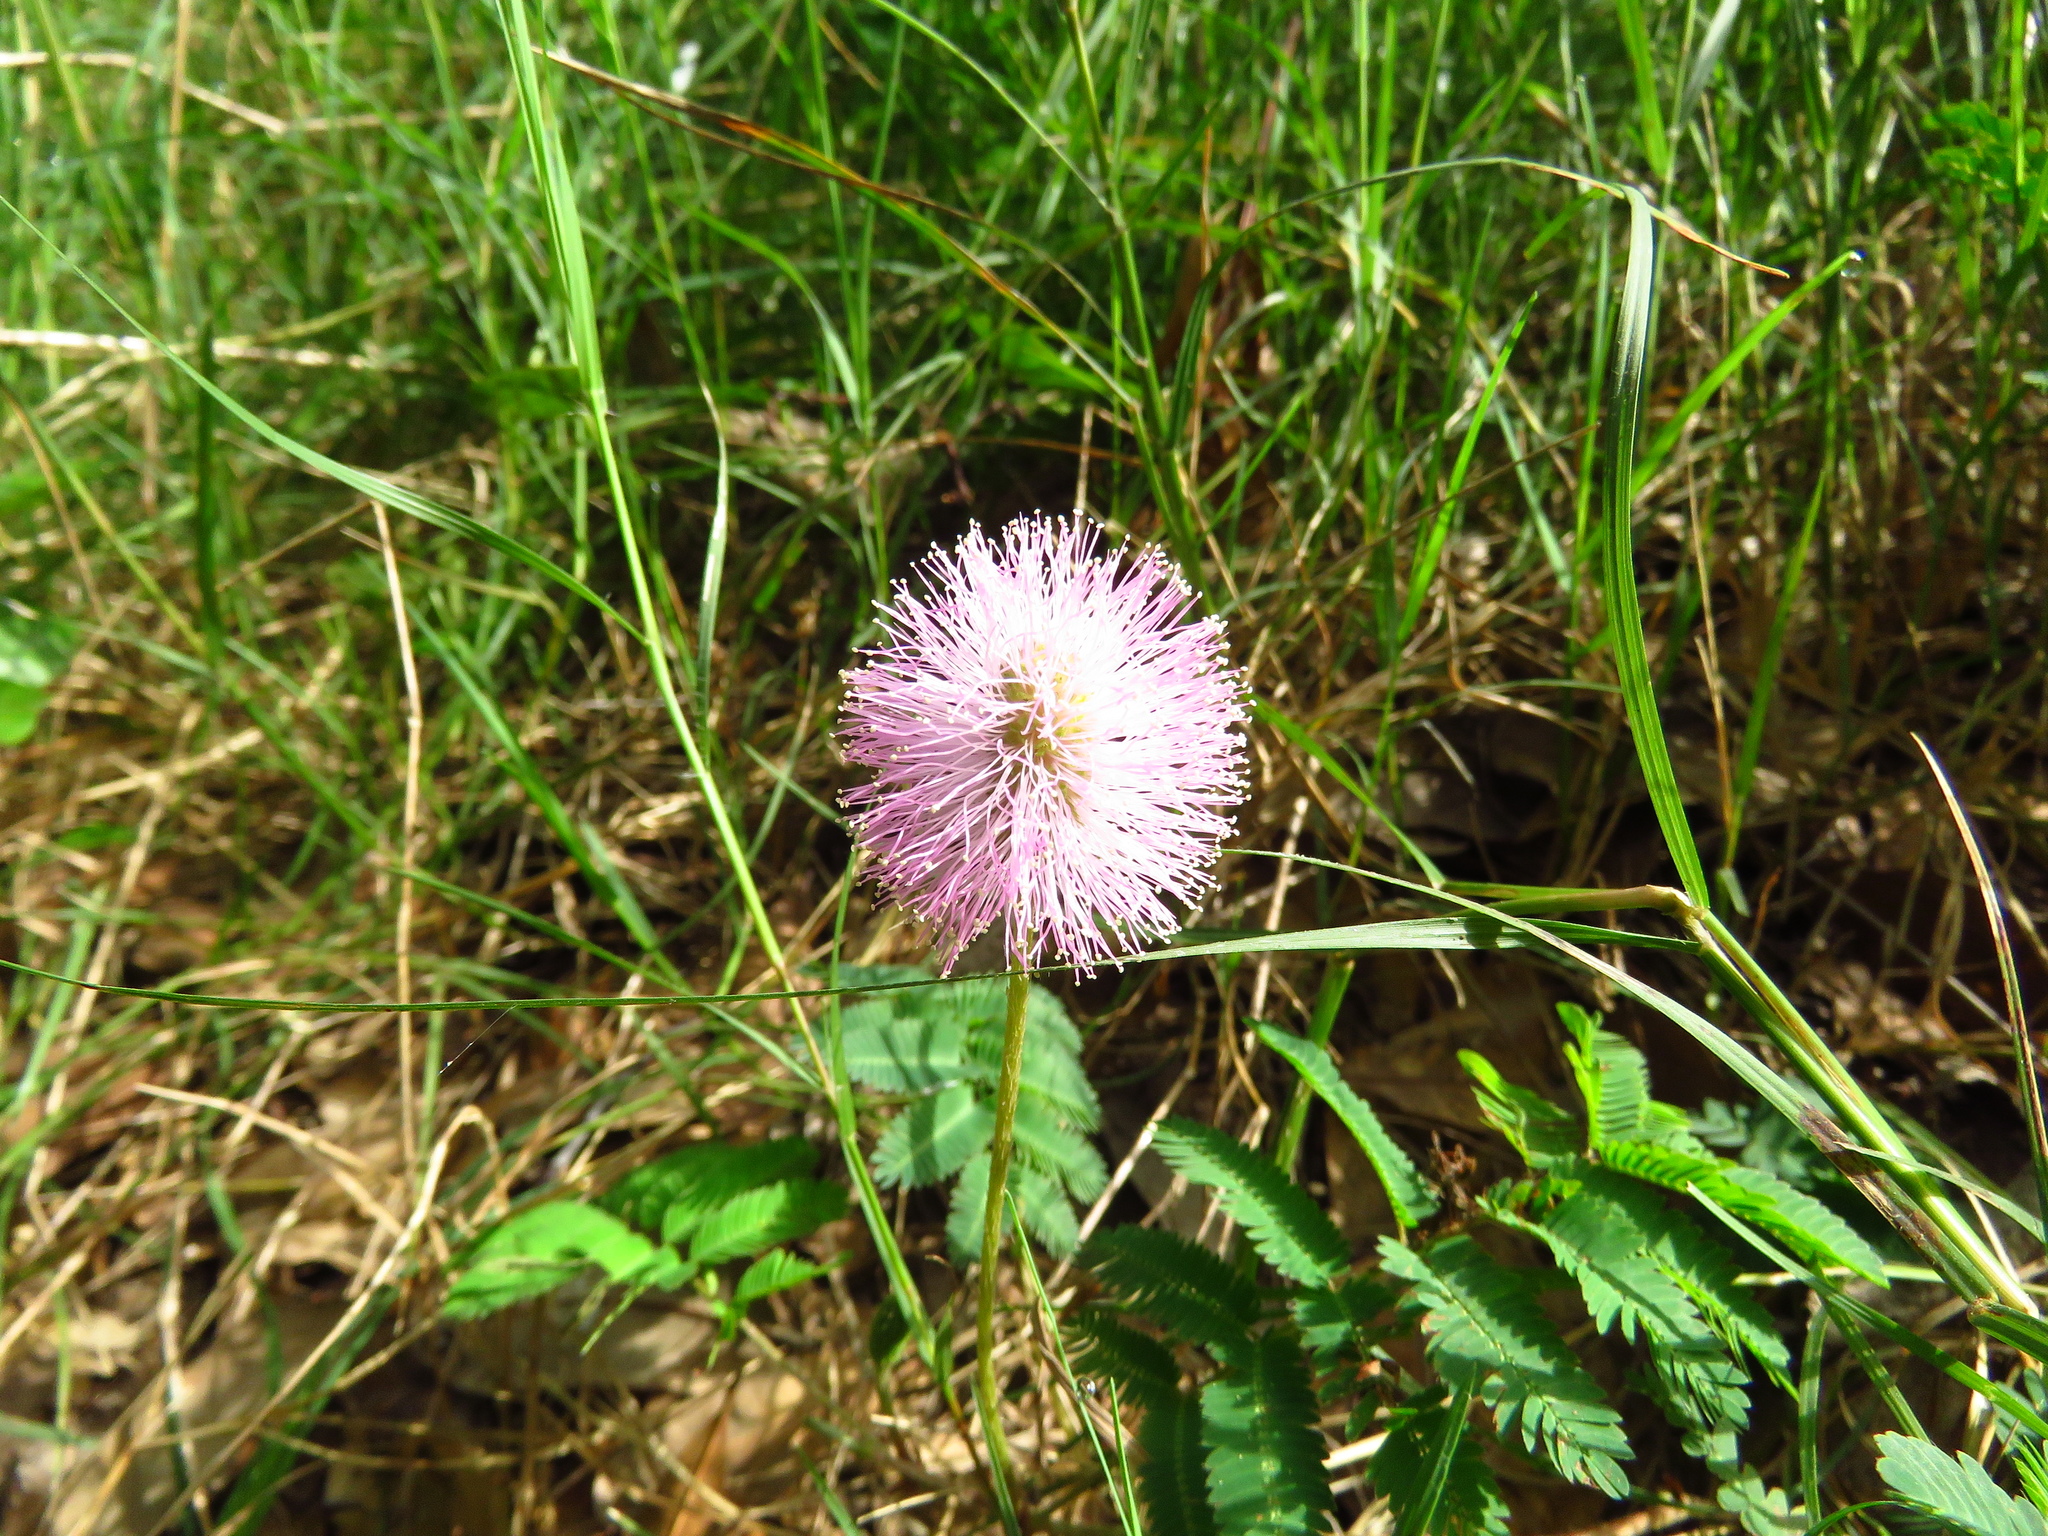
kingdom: Plantae
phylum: Tracheophyta
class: Magnoliopsida
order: Fabales
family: Fabaceae
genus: Mimosa
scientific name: Mimosa strigillosa
